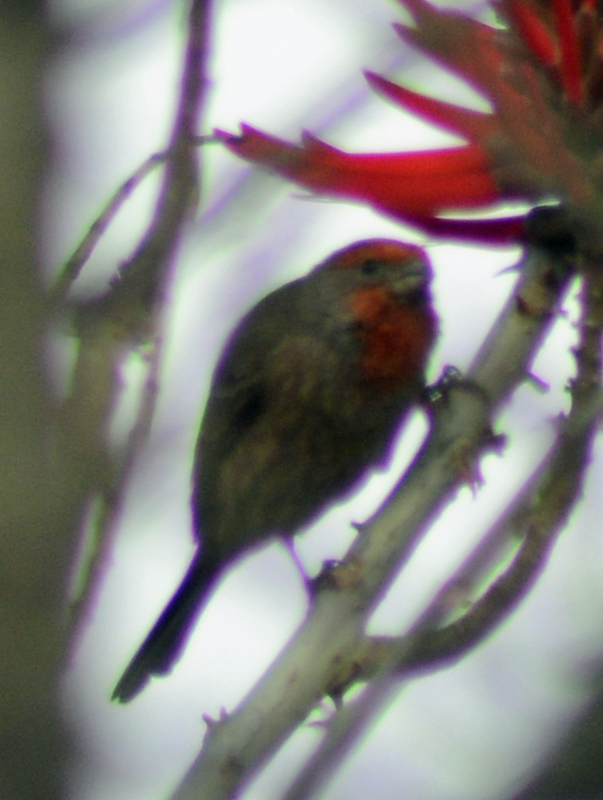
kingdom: Animalia
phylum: Chordata
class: Aves
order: Passeriformes
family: Fringillidae
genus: Haemorhous
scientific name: Haemorhous mexicanus
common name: House finch
